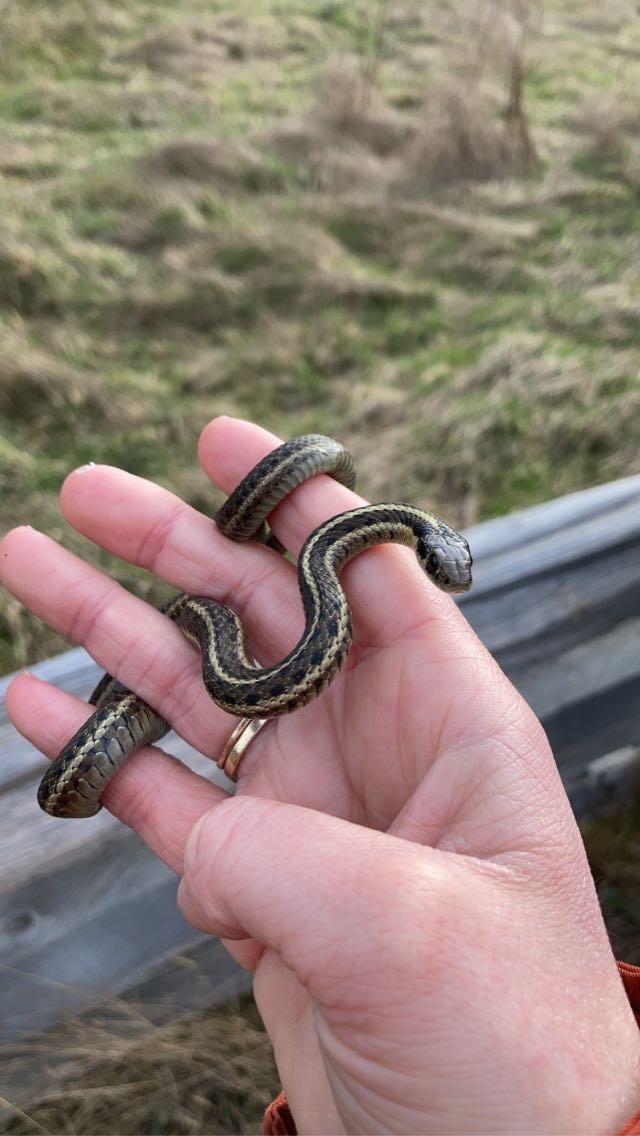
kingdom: Animalia
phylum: Chordata
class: Squamata
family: Colubridae
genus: Thamnophis
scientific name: Thamnophis ordinoides
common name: Northwestern garter snake
